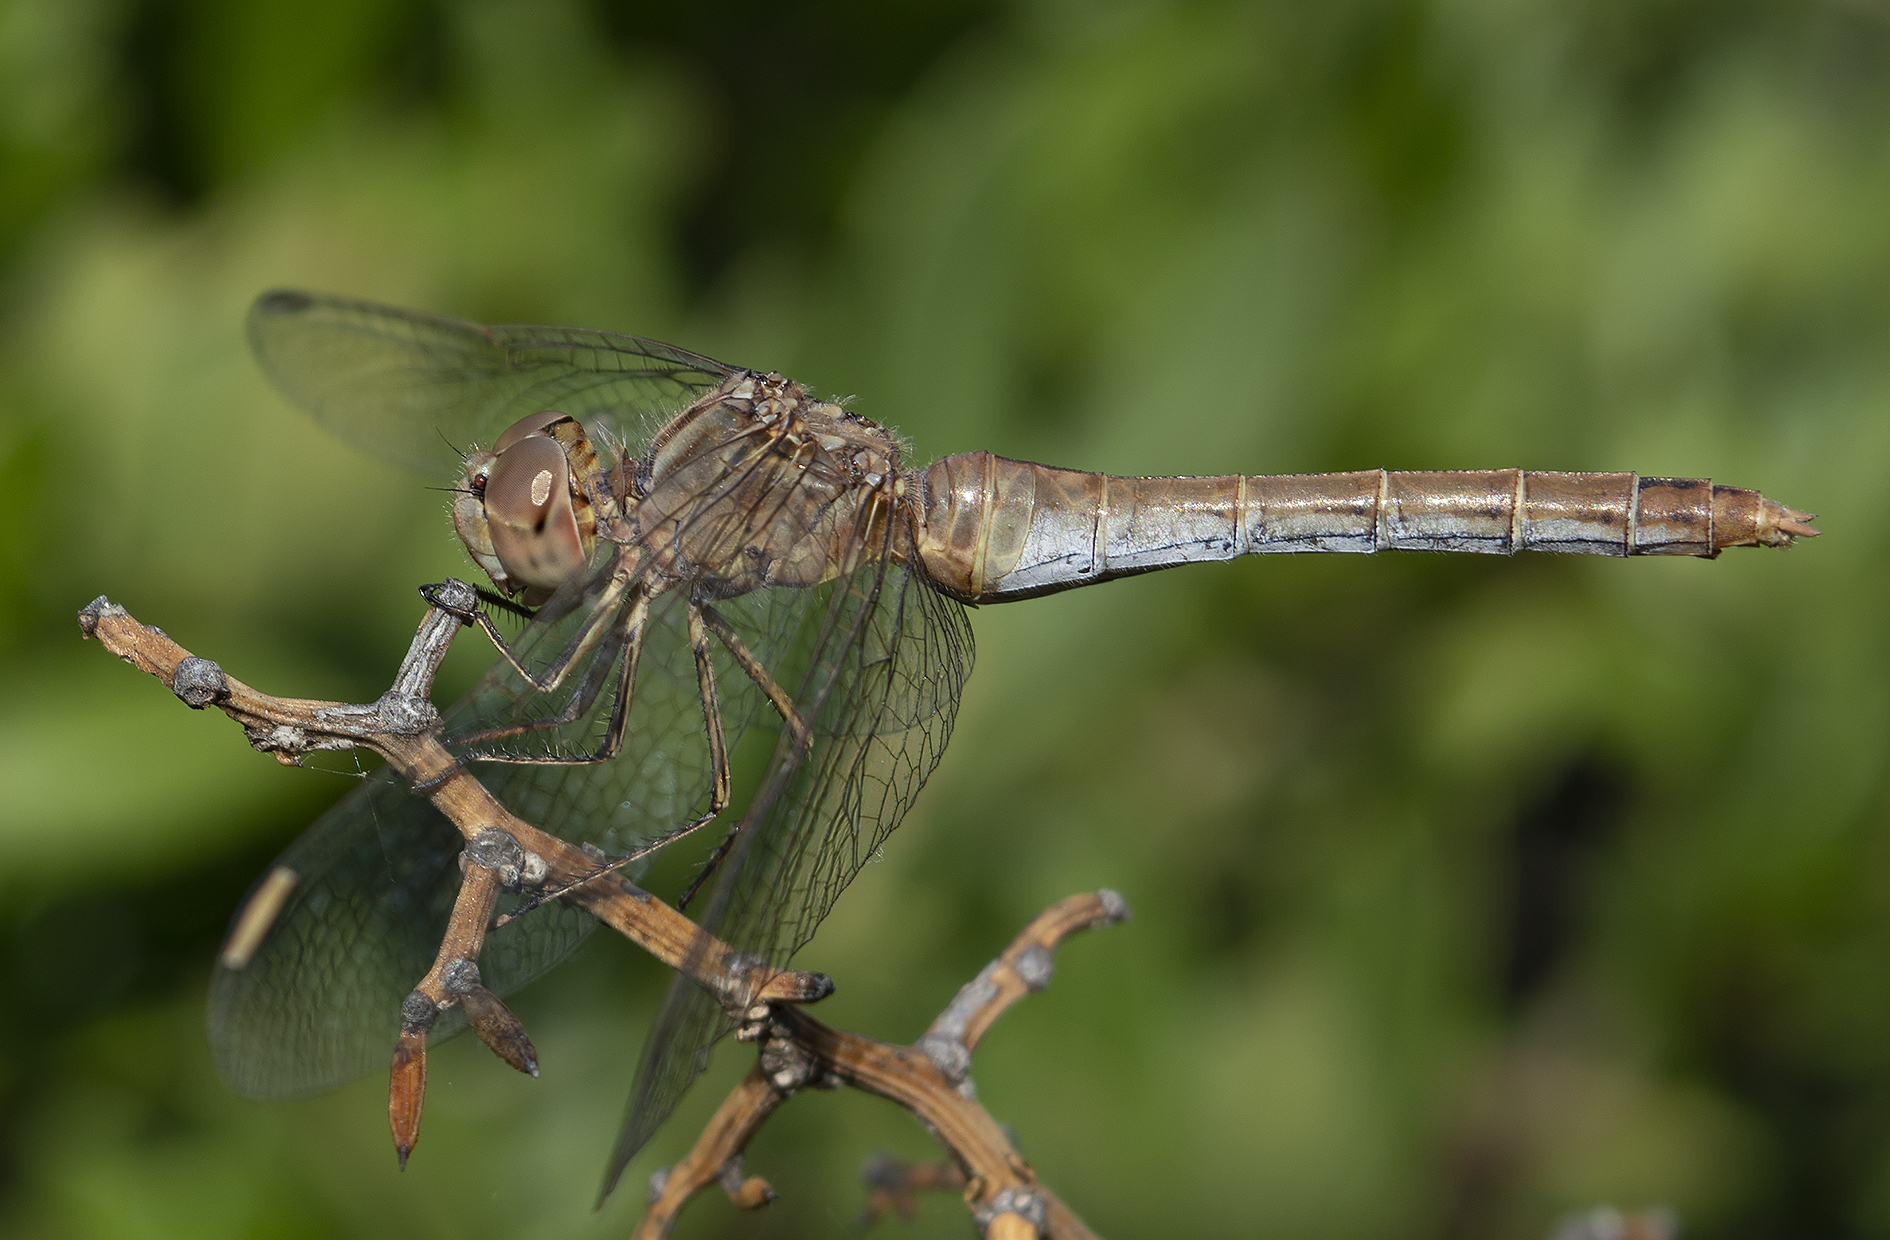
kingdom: Animalia
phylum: Arthropoda
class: Insecta
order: Odonata
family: Libellulidae
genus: Sympetrum
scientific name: Sympetrum meridionale
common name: Southern darter
